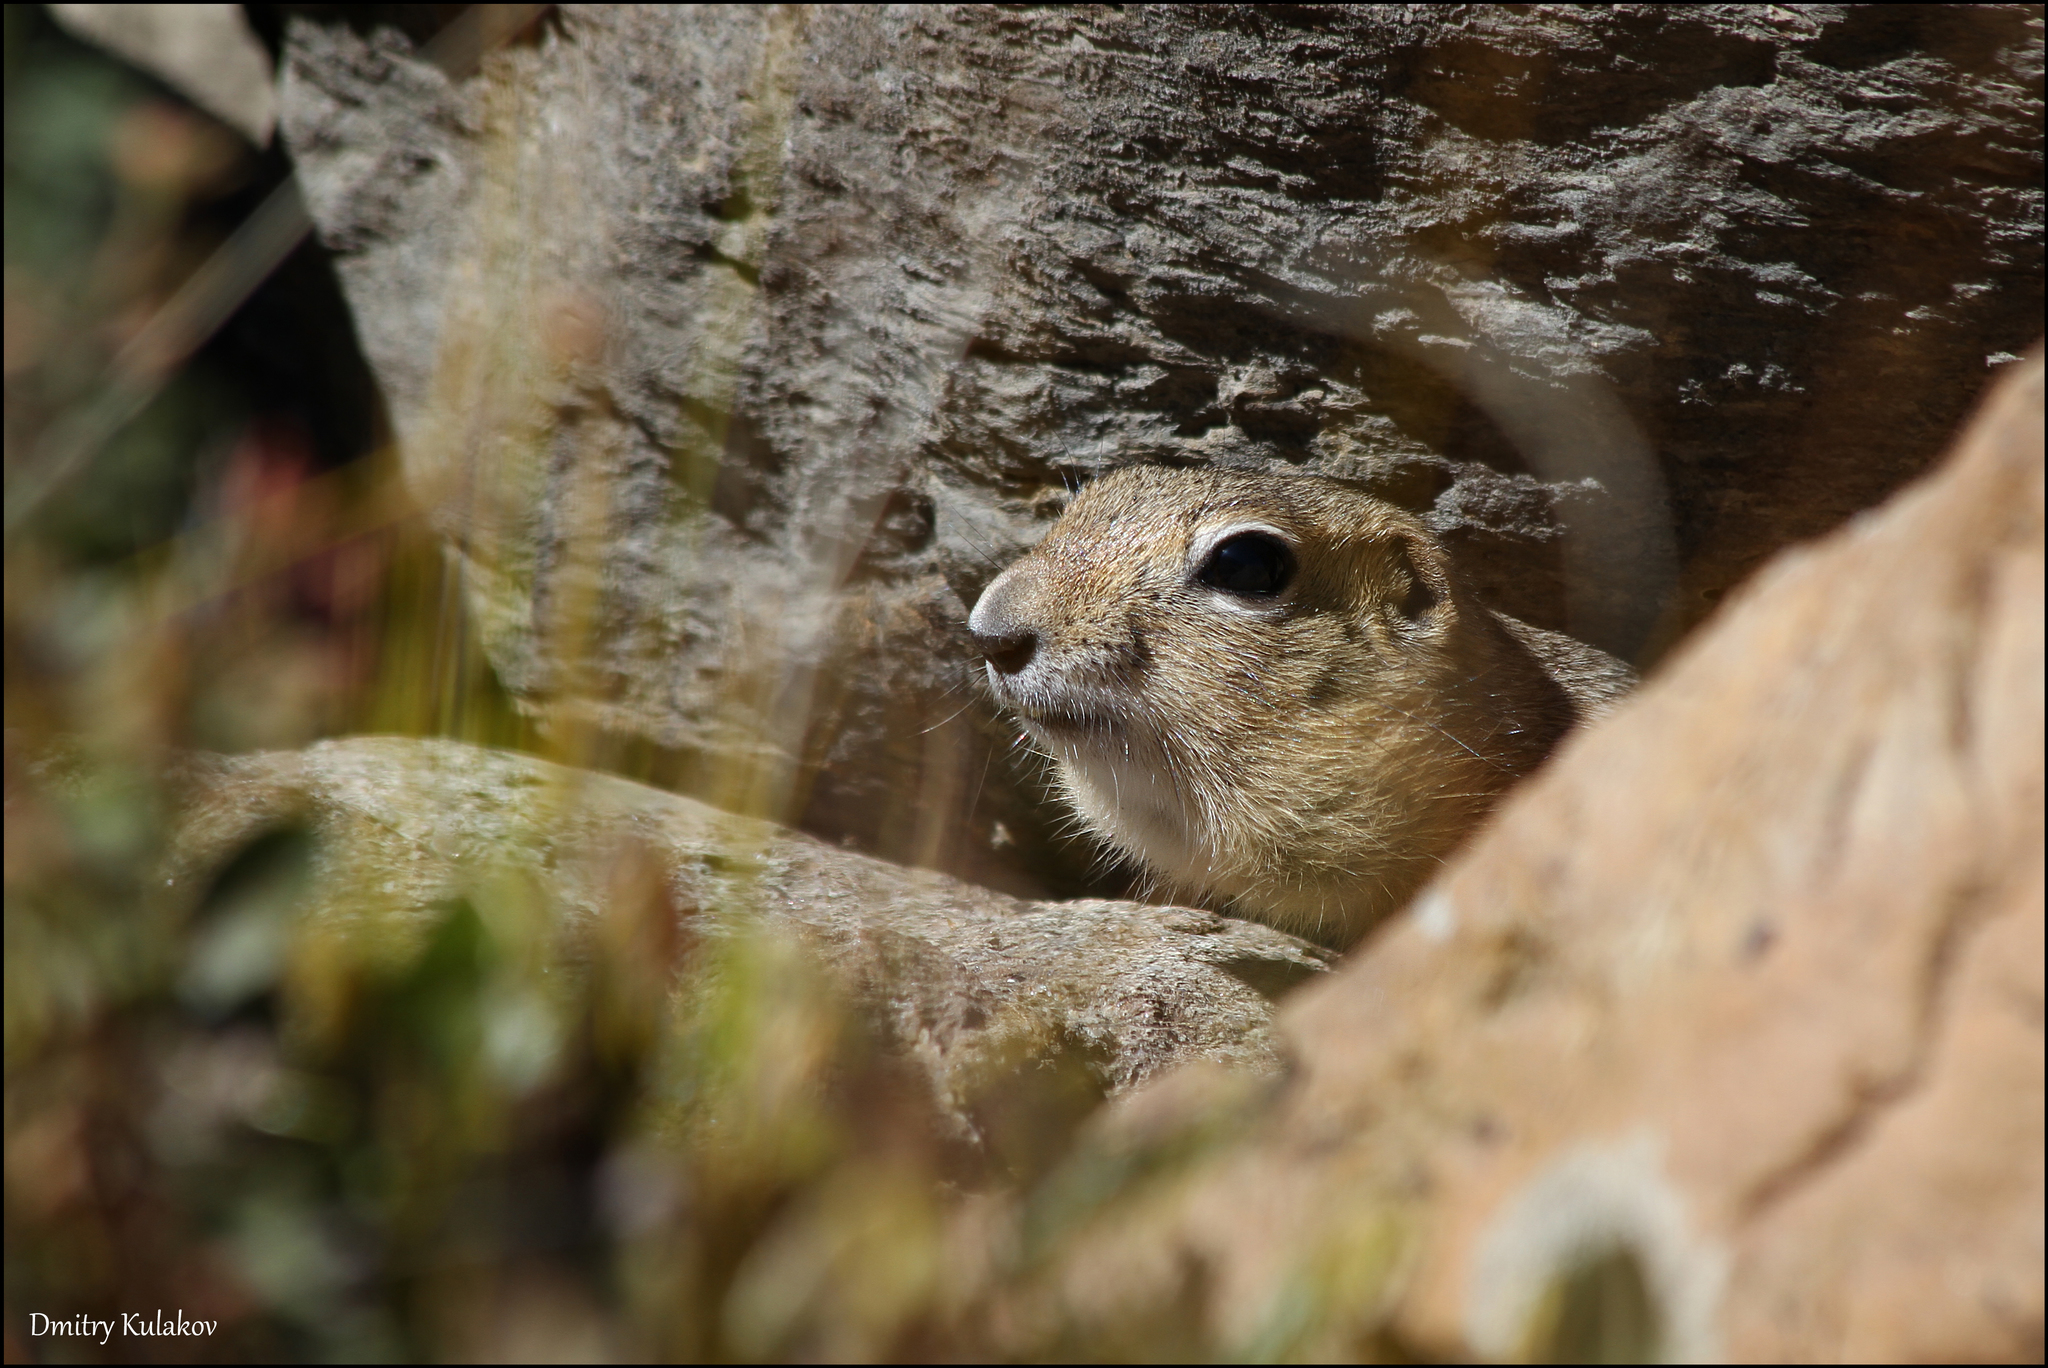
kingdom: Animalia
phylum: Chordata
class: Mammalia
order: Rodentia
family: Sciuridae
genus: Urocitellus
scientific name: Urocitellus undulatus
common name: Long-tailed ground squirrel
